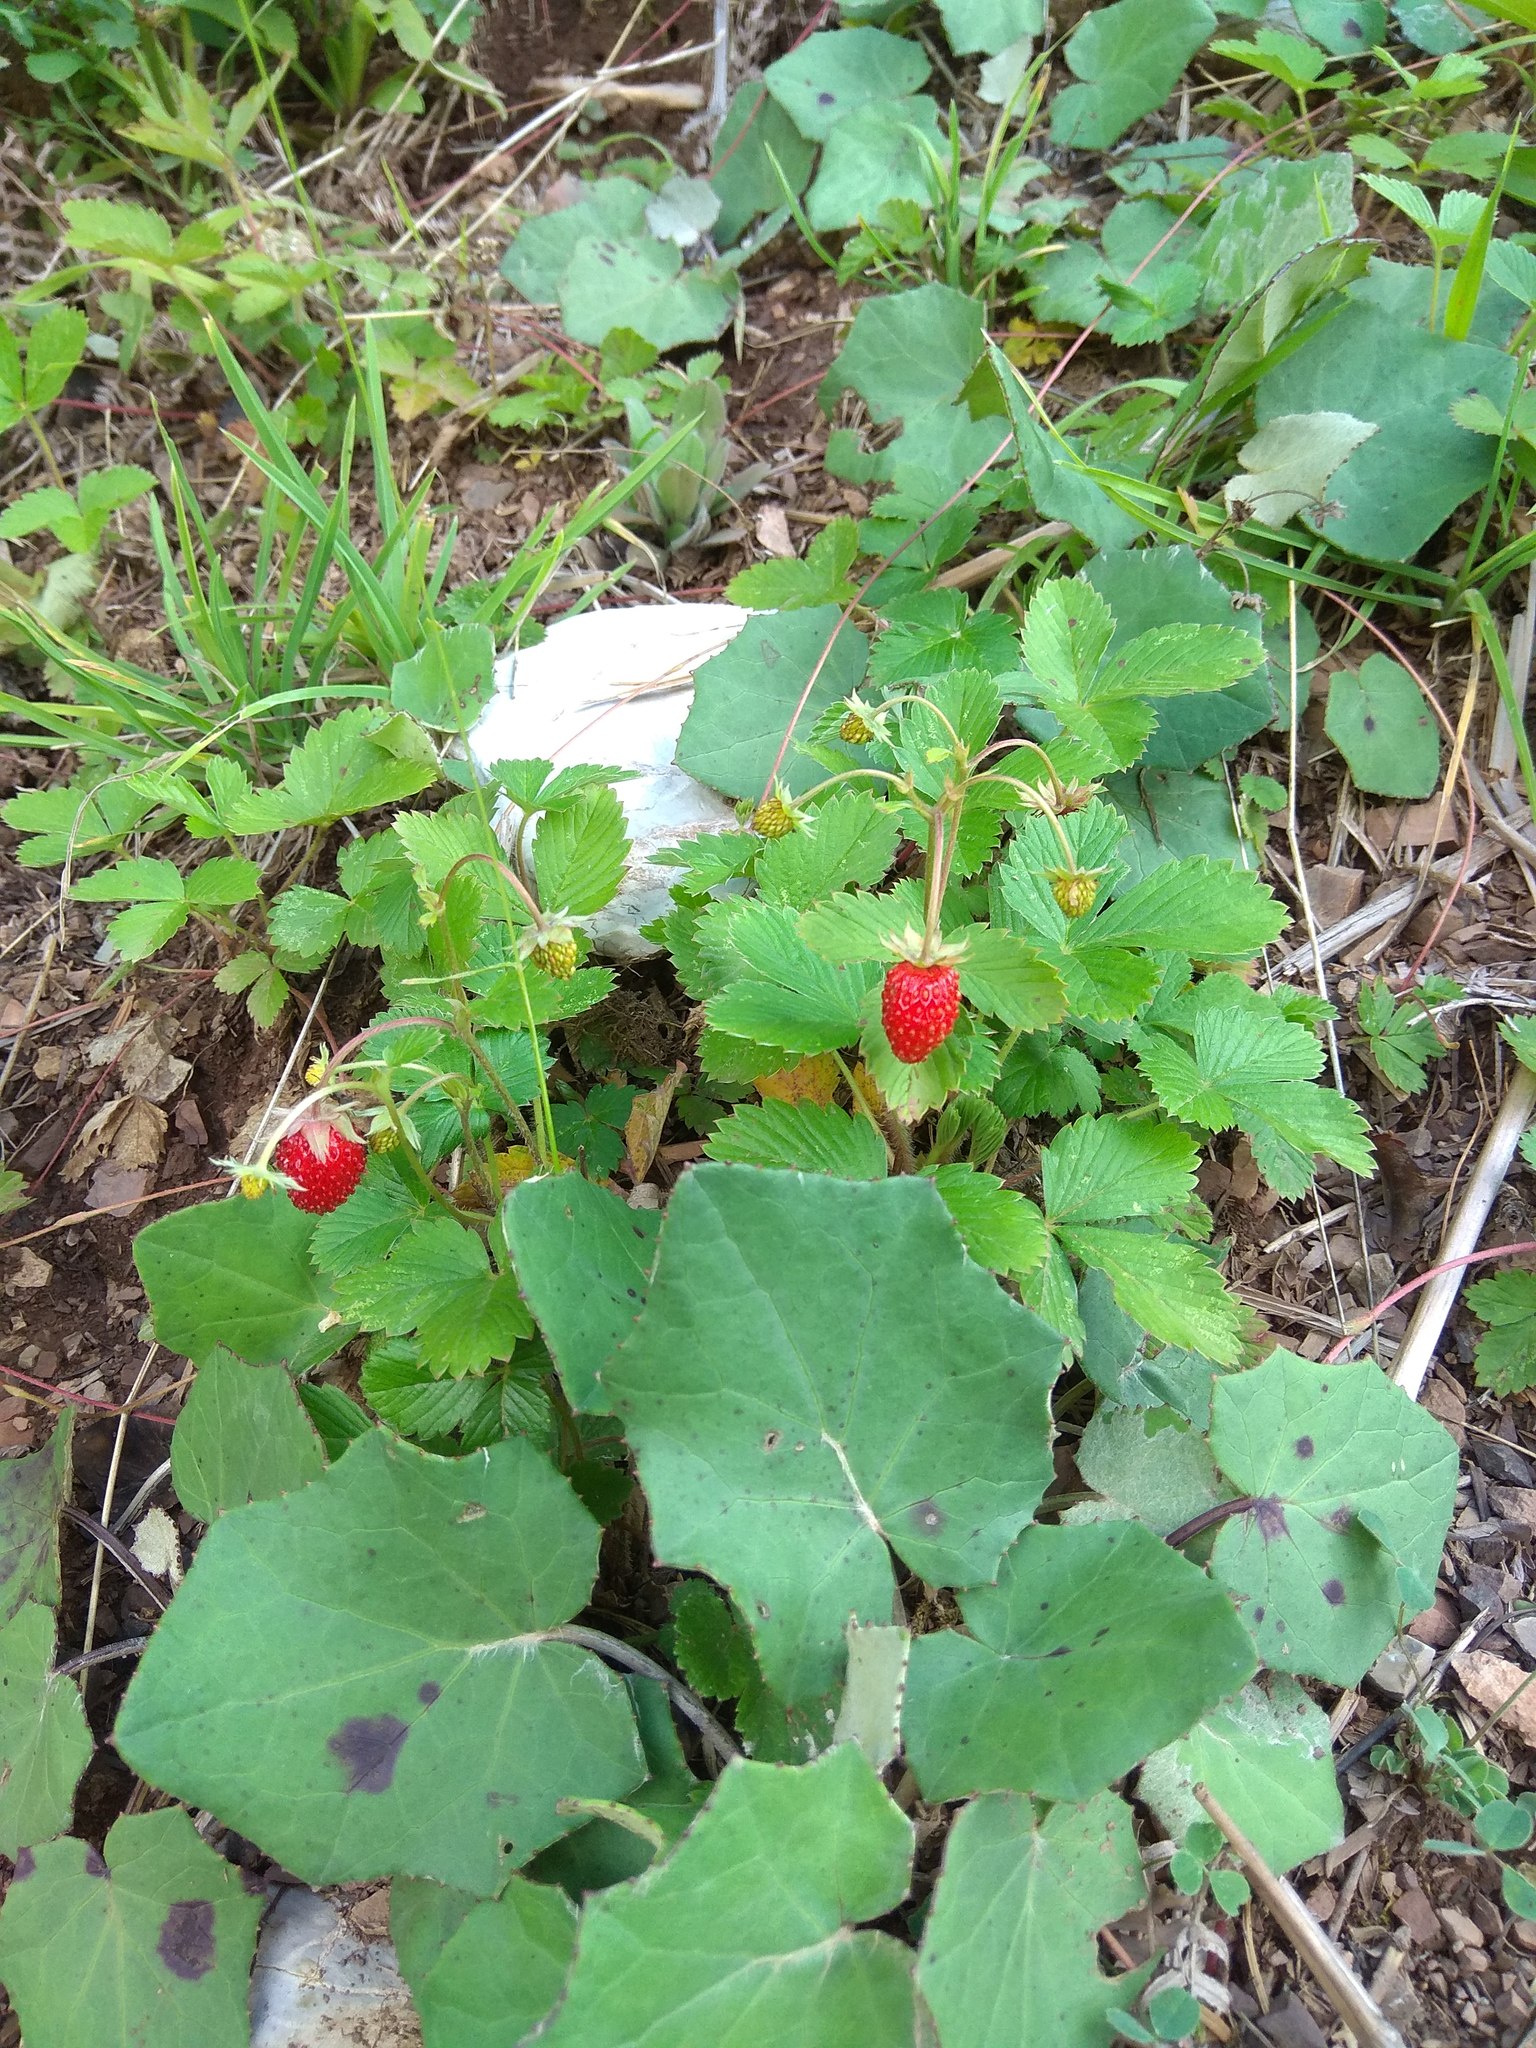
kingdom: Plantae
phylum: Tracheophyta
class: Magnoliopsida
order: Rosales
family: Rosaceae
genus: Fragaria
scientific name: Fragaria vesca
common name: Wild strawberry
